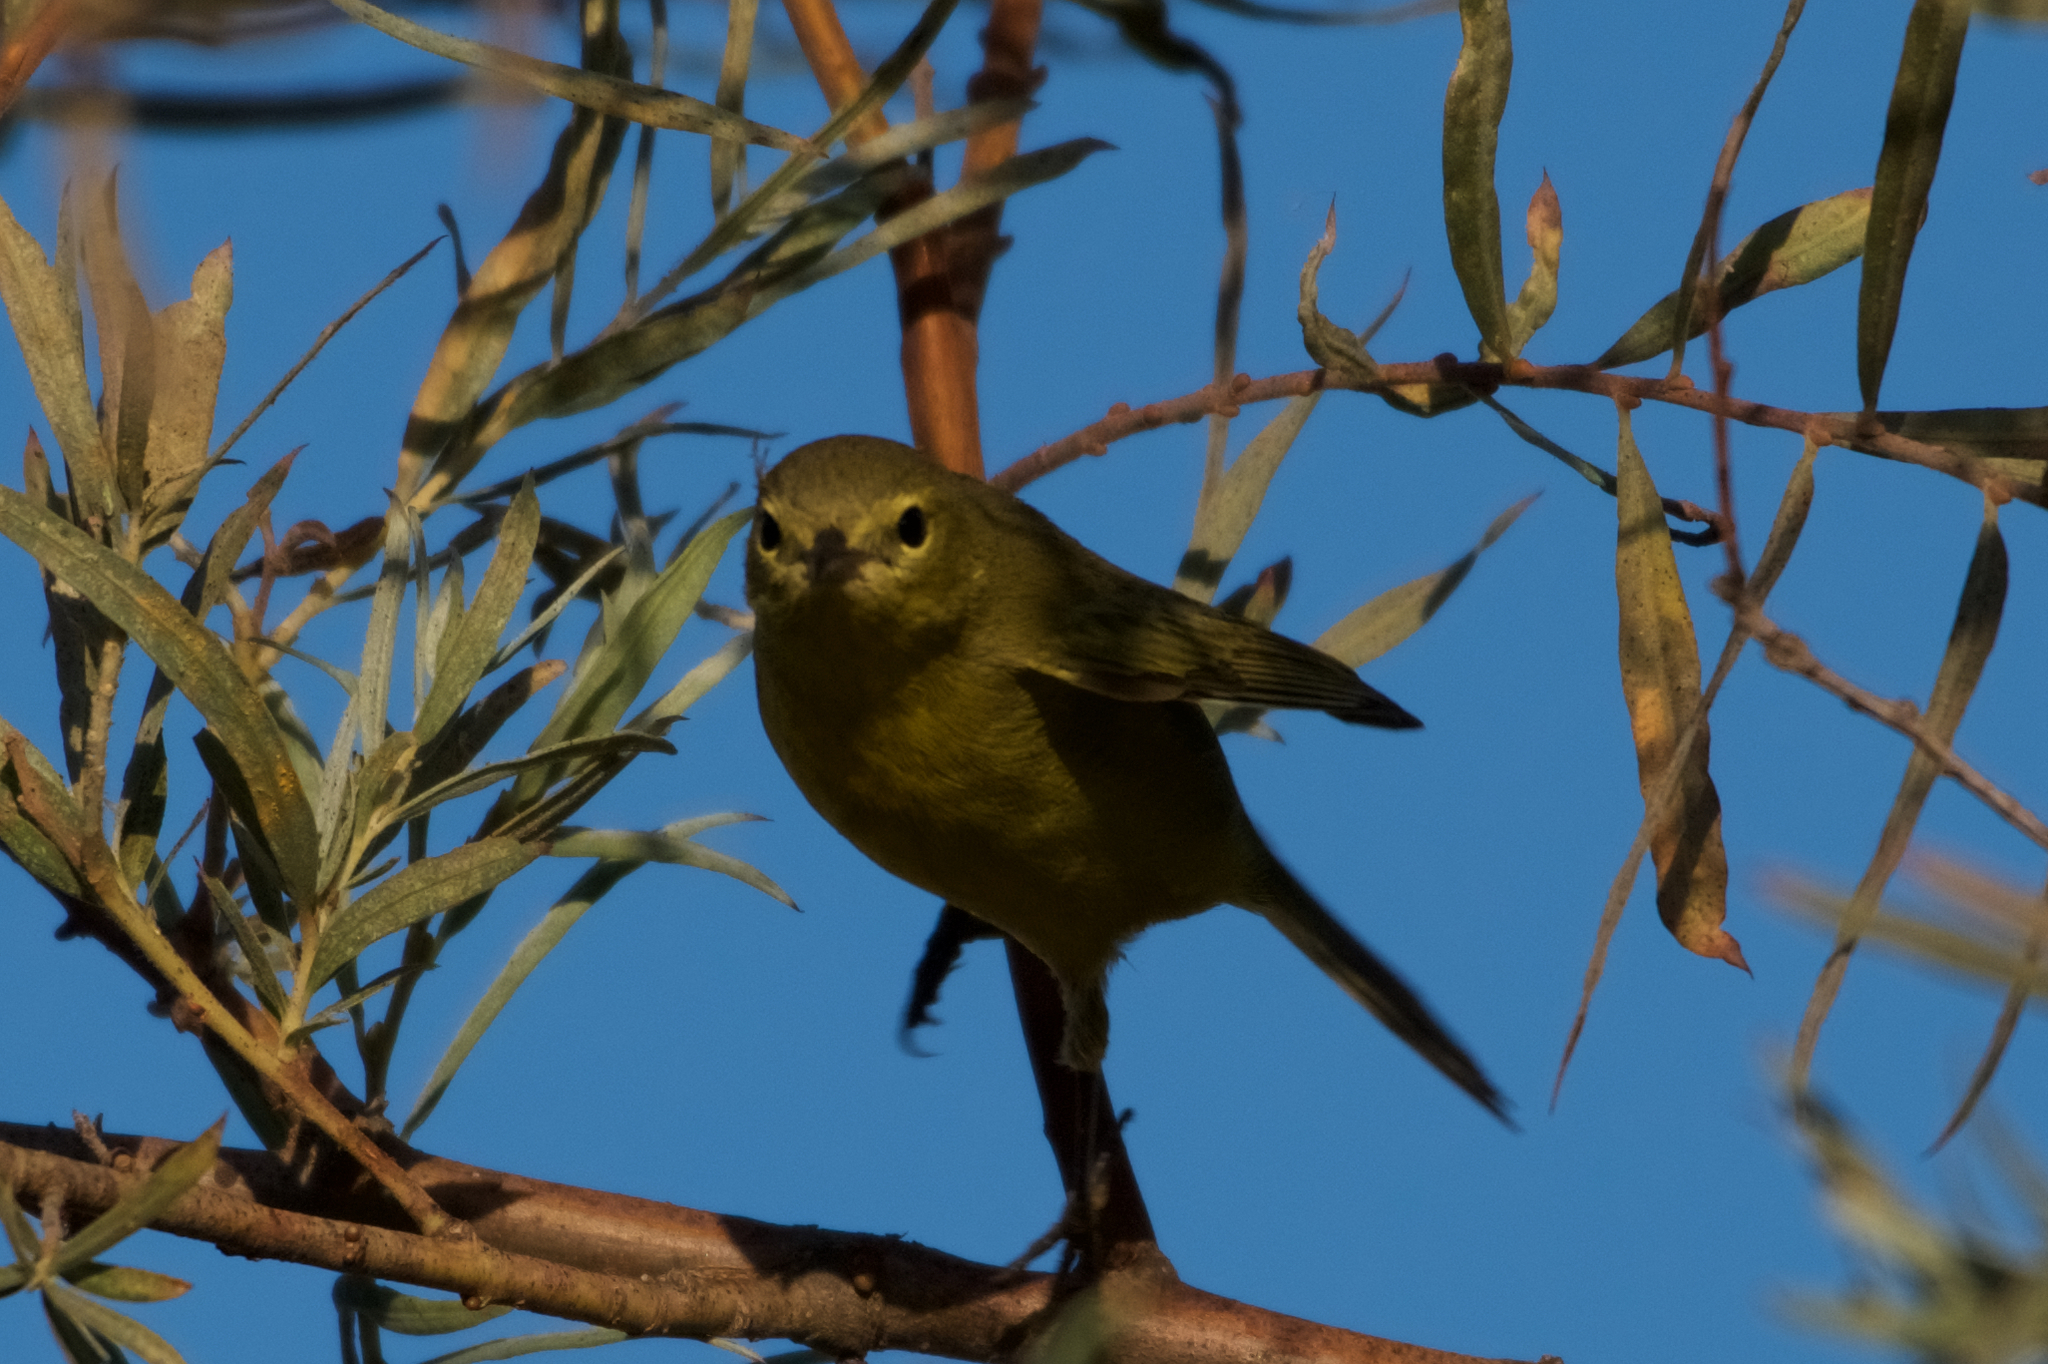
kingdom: Animalia
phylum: Chordata
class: Aves
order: Passeriformes
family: Parulidae
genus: Leiothlypis
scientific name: Leiothlypis celata
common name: Orange-crowned warbler
